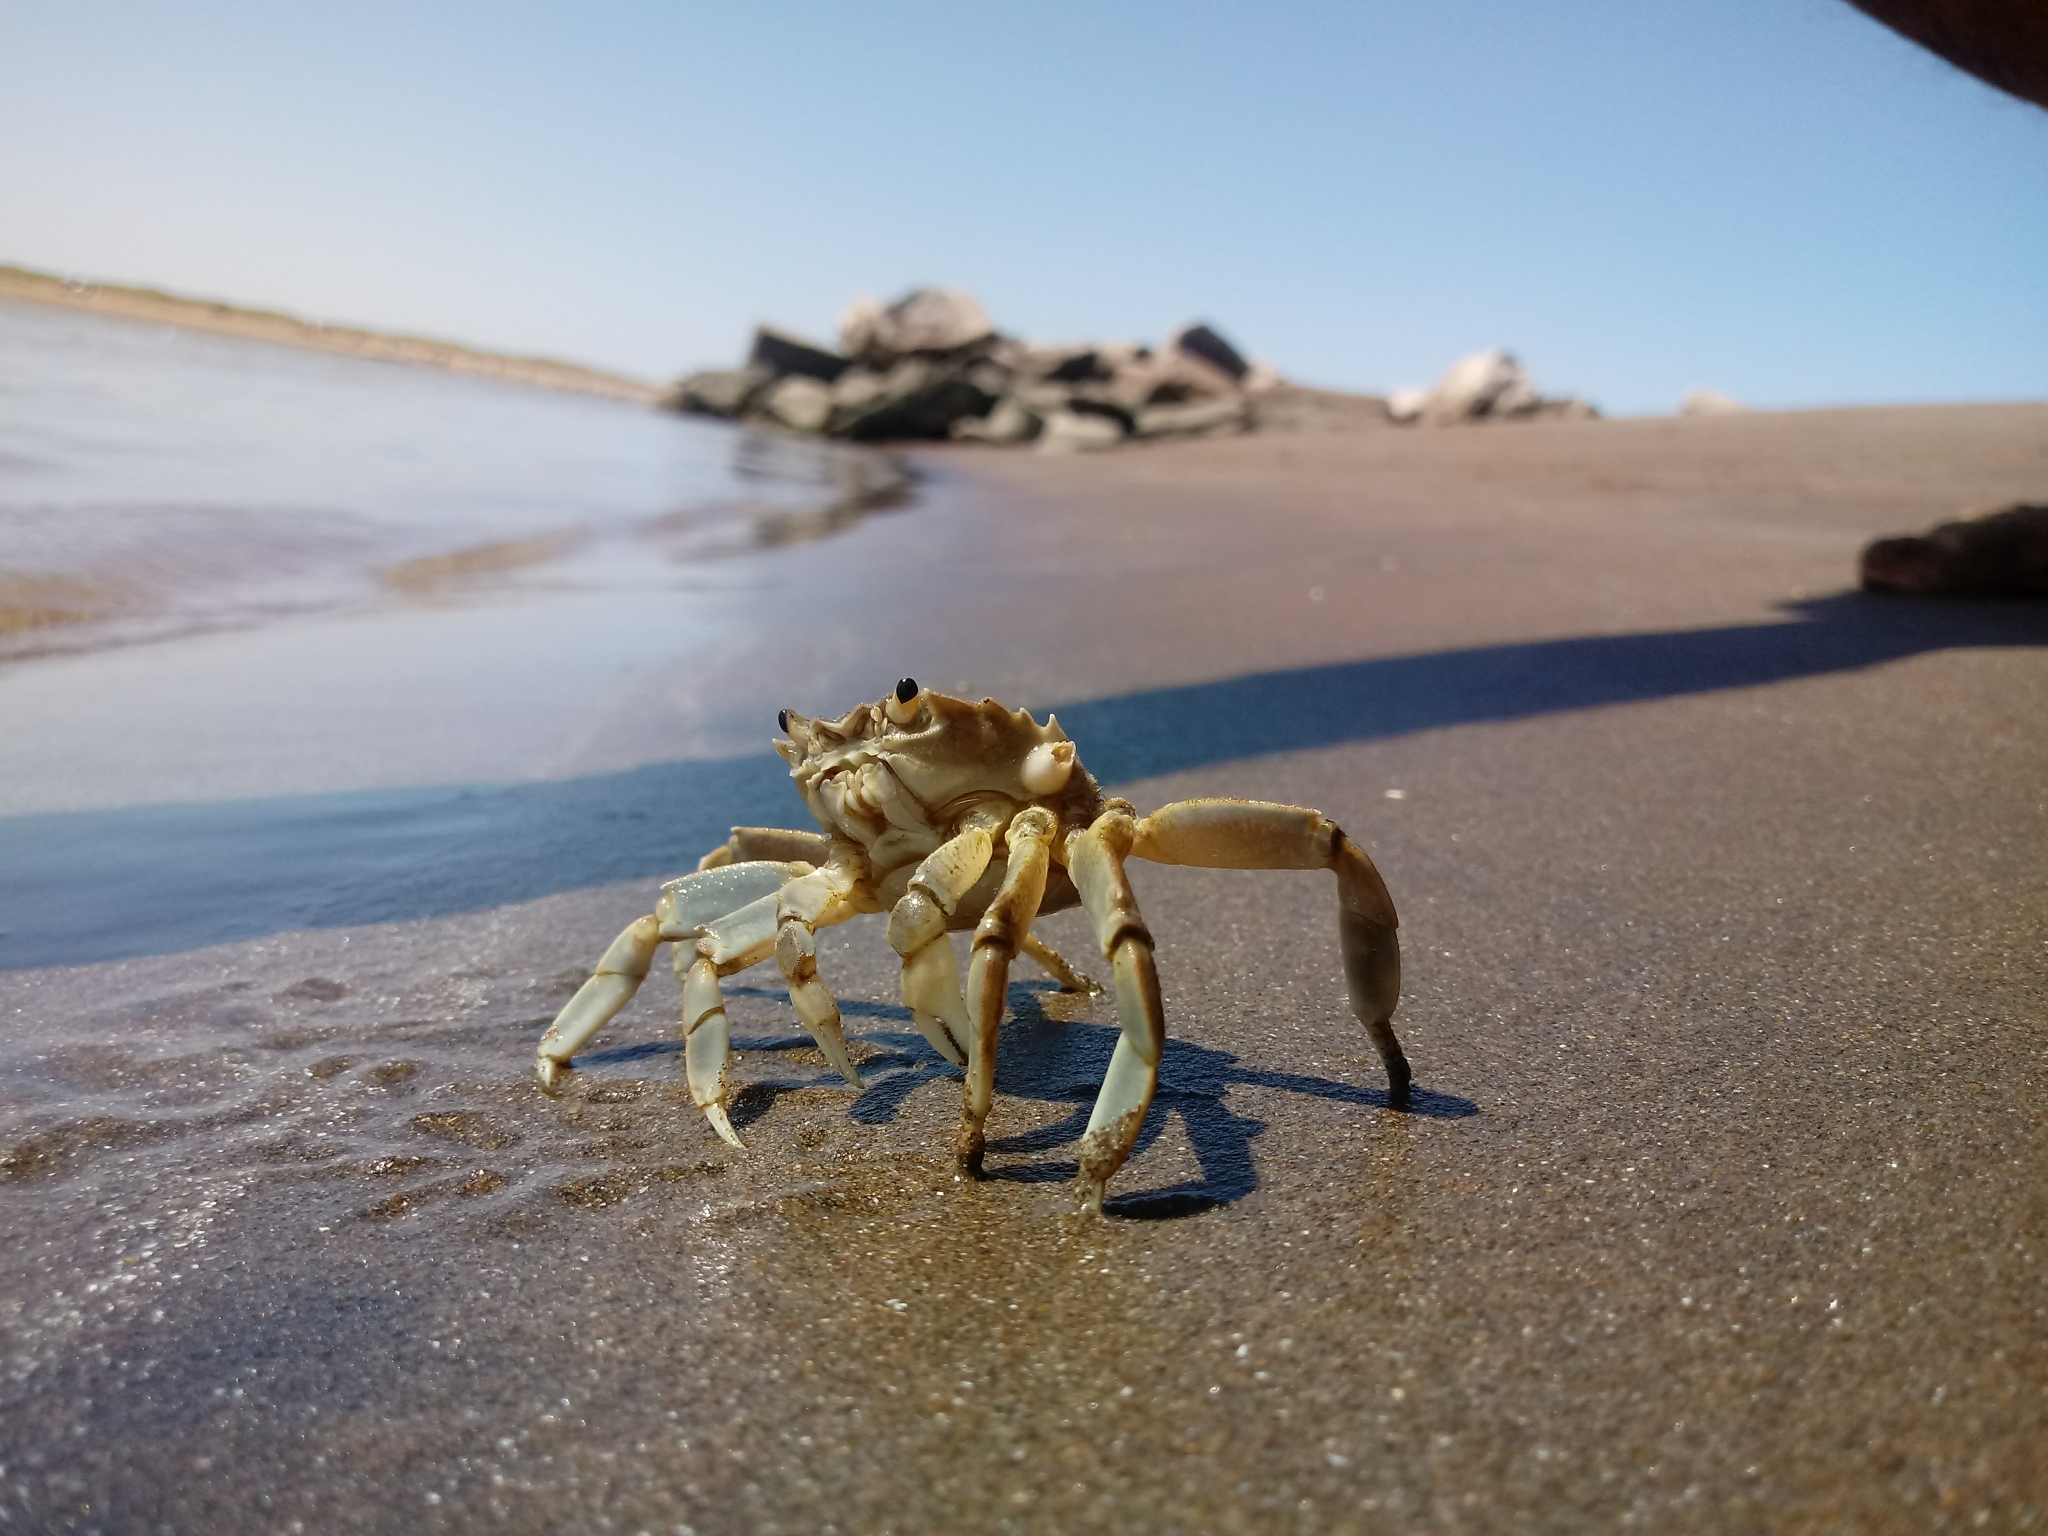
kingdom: Animalia
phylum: Arthropoda
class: Malacostraca
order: Decapoda
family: Varunidae
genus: Cyrtograpsus
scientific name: Cyrtograpsus angulatus
